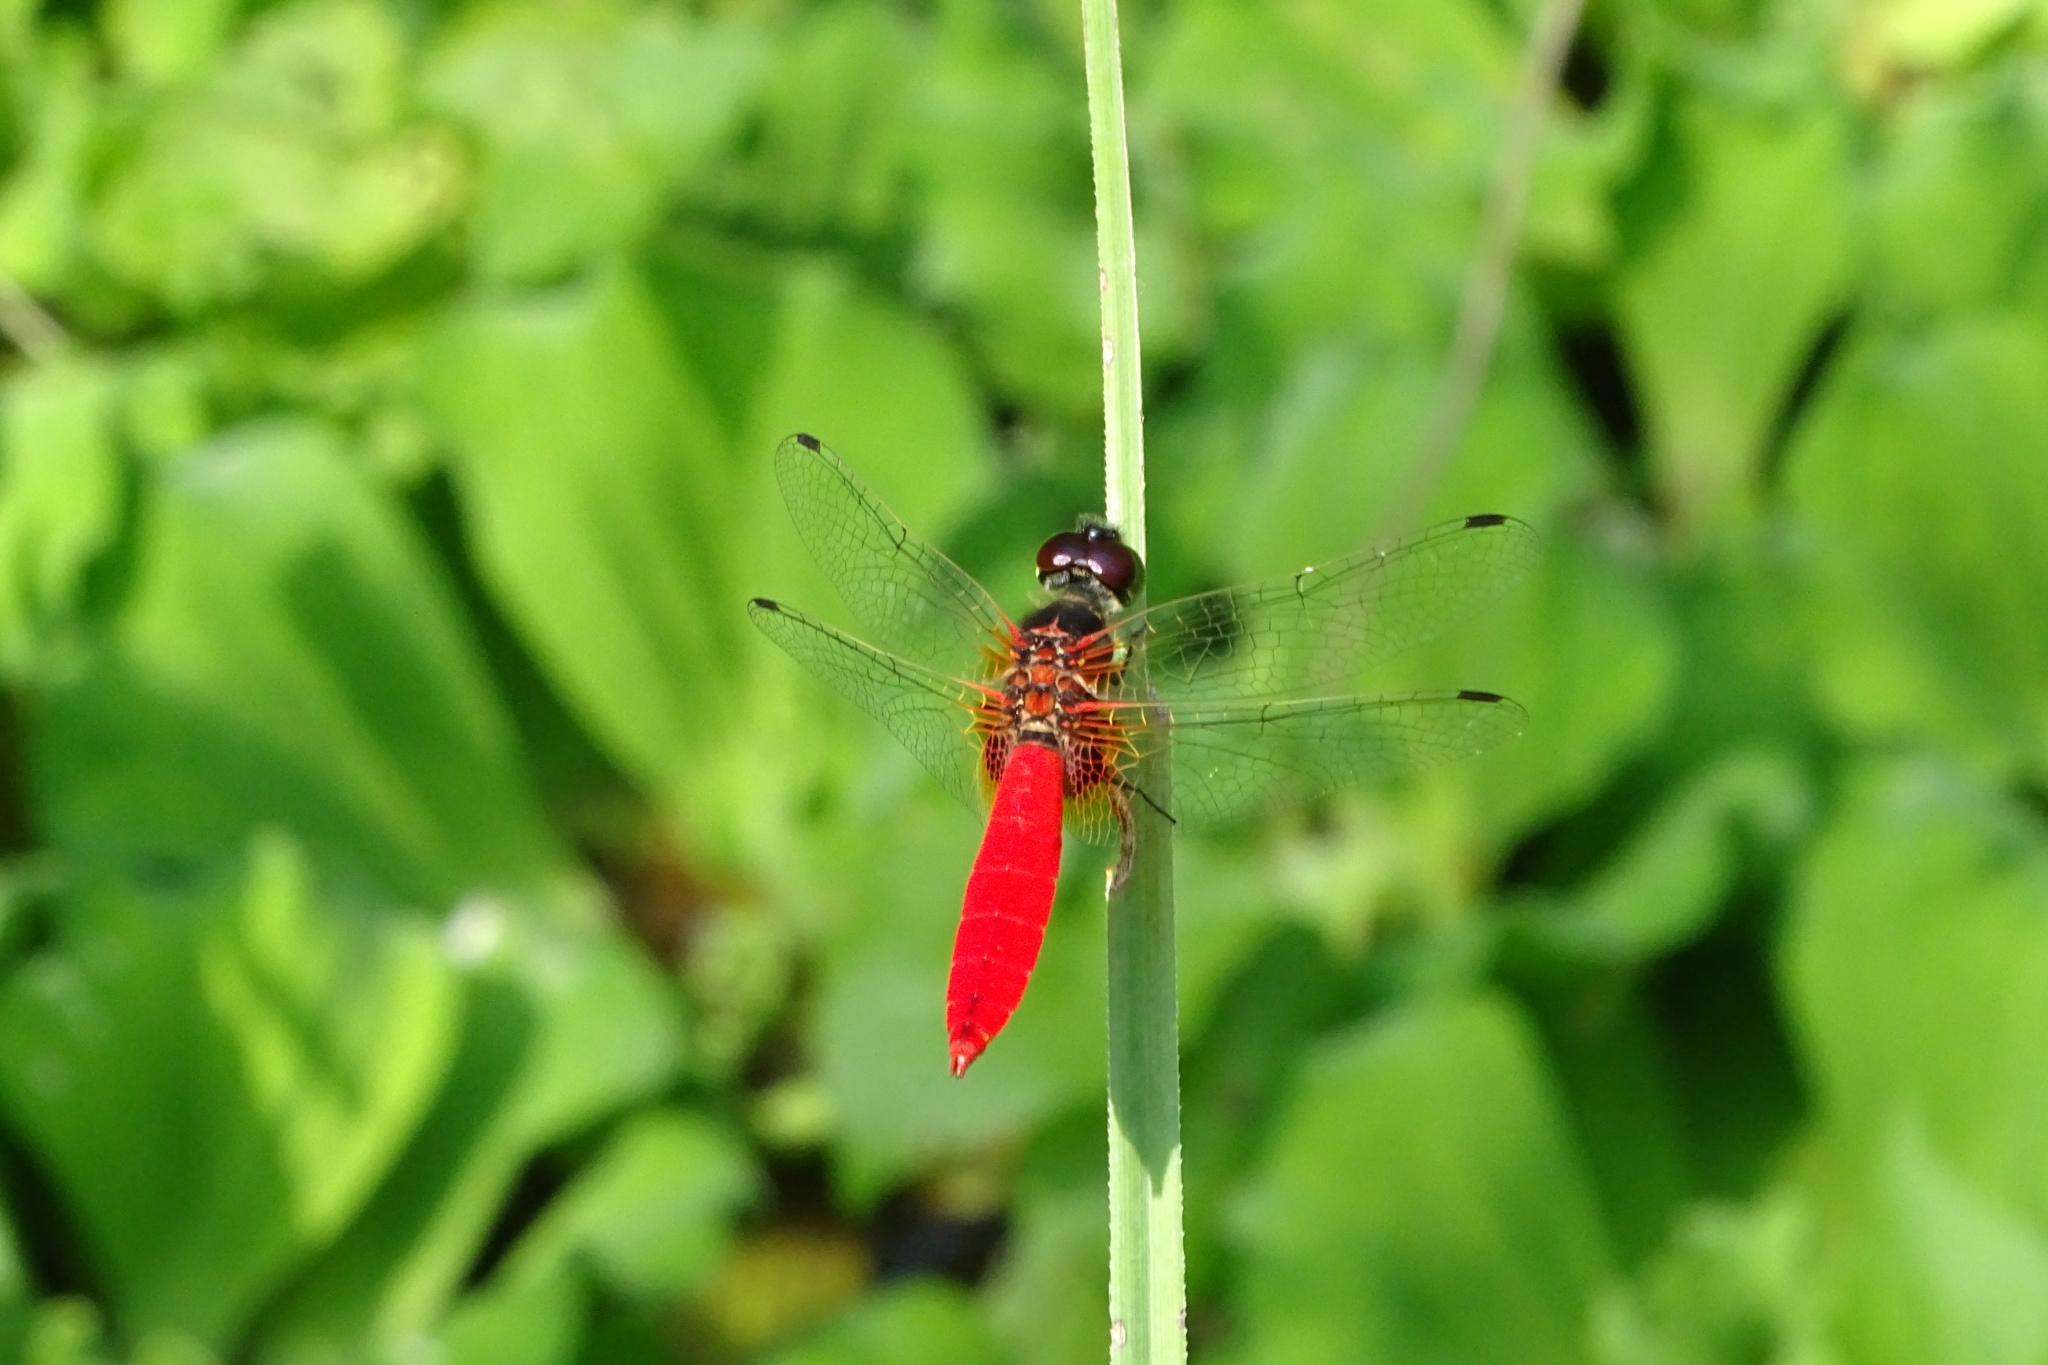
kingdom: Animalia
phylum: Arthropoda
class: Insecta
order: Odonata
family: Libellulidae
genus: Aethriamanta
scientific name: Aethriamanta brevipennis
